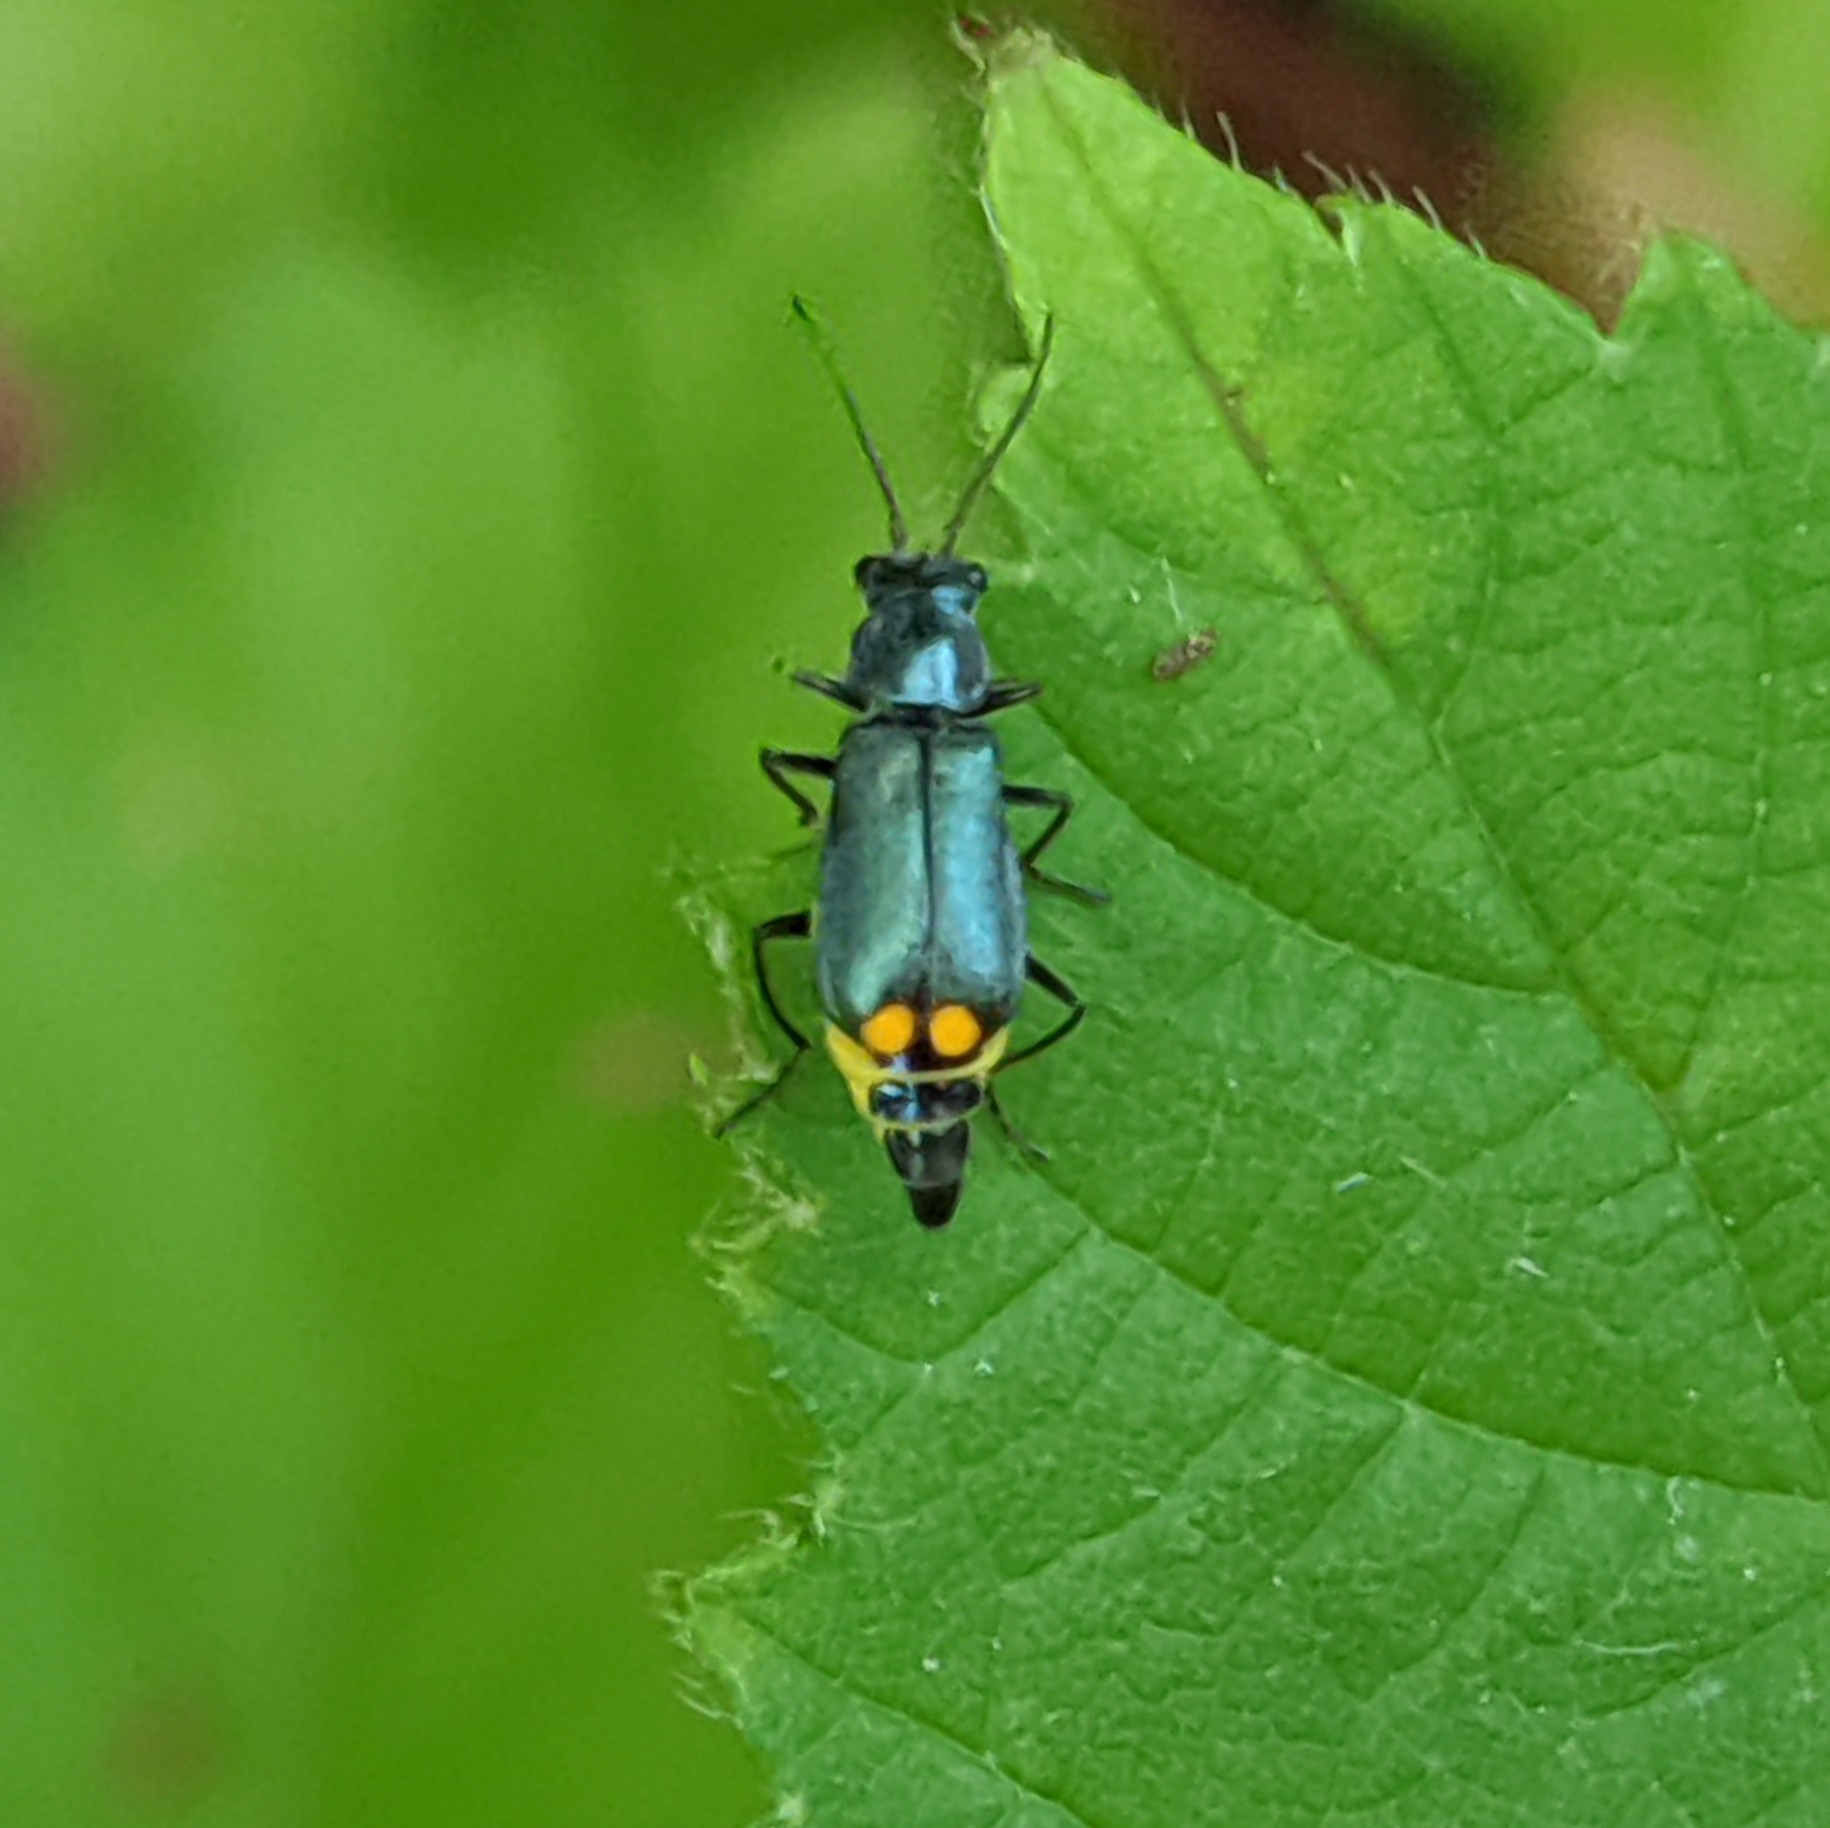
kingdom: Animalia
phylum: Arthropoda
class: Insecta
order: Coleoptera
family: Melyridae
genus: Malachius
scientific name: Malachius bipustulatus
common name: Malachite beetle
